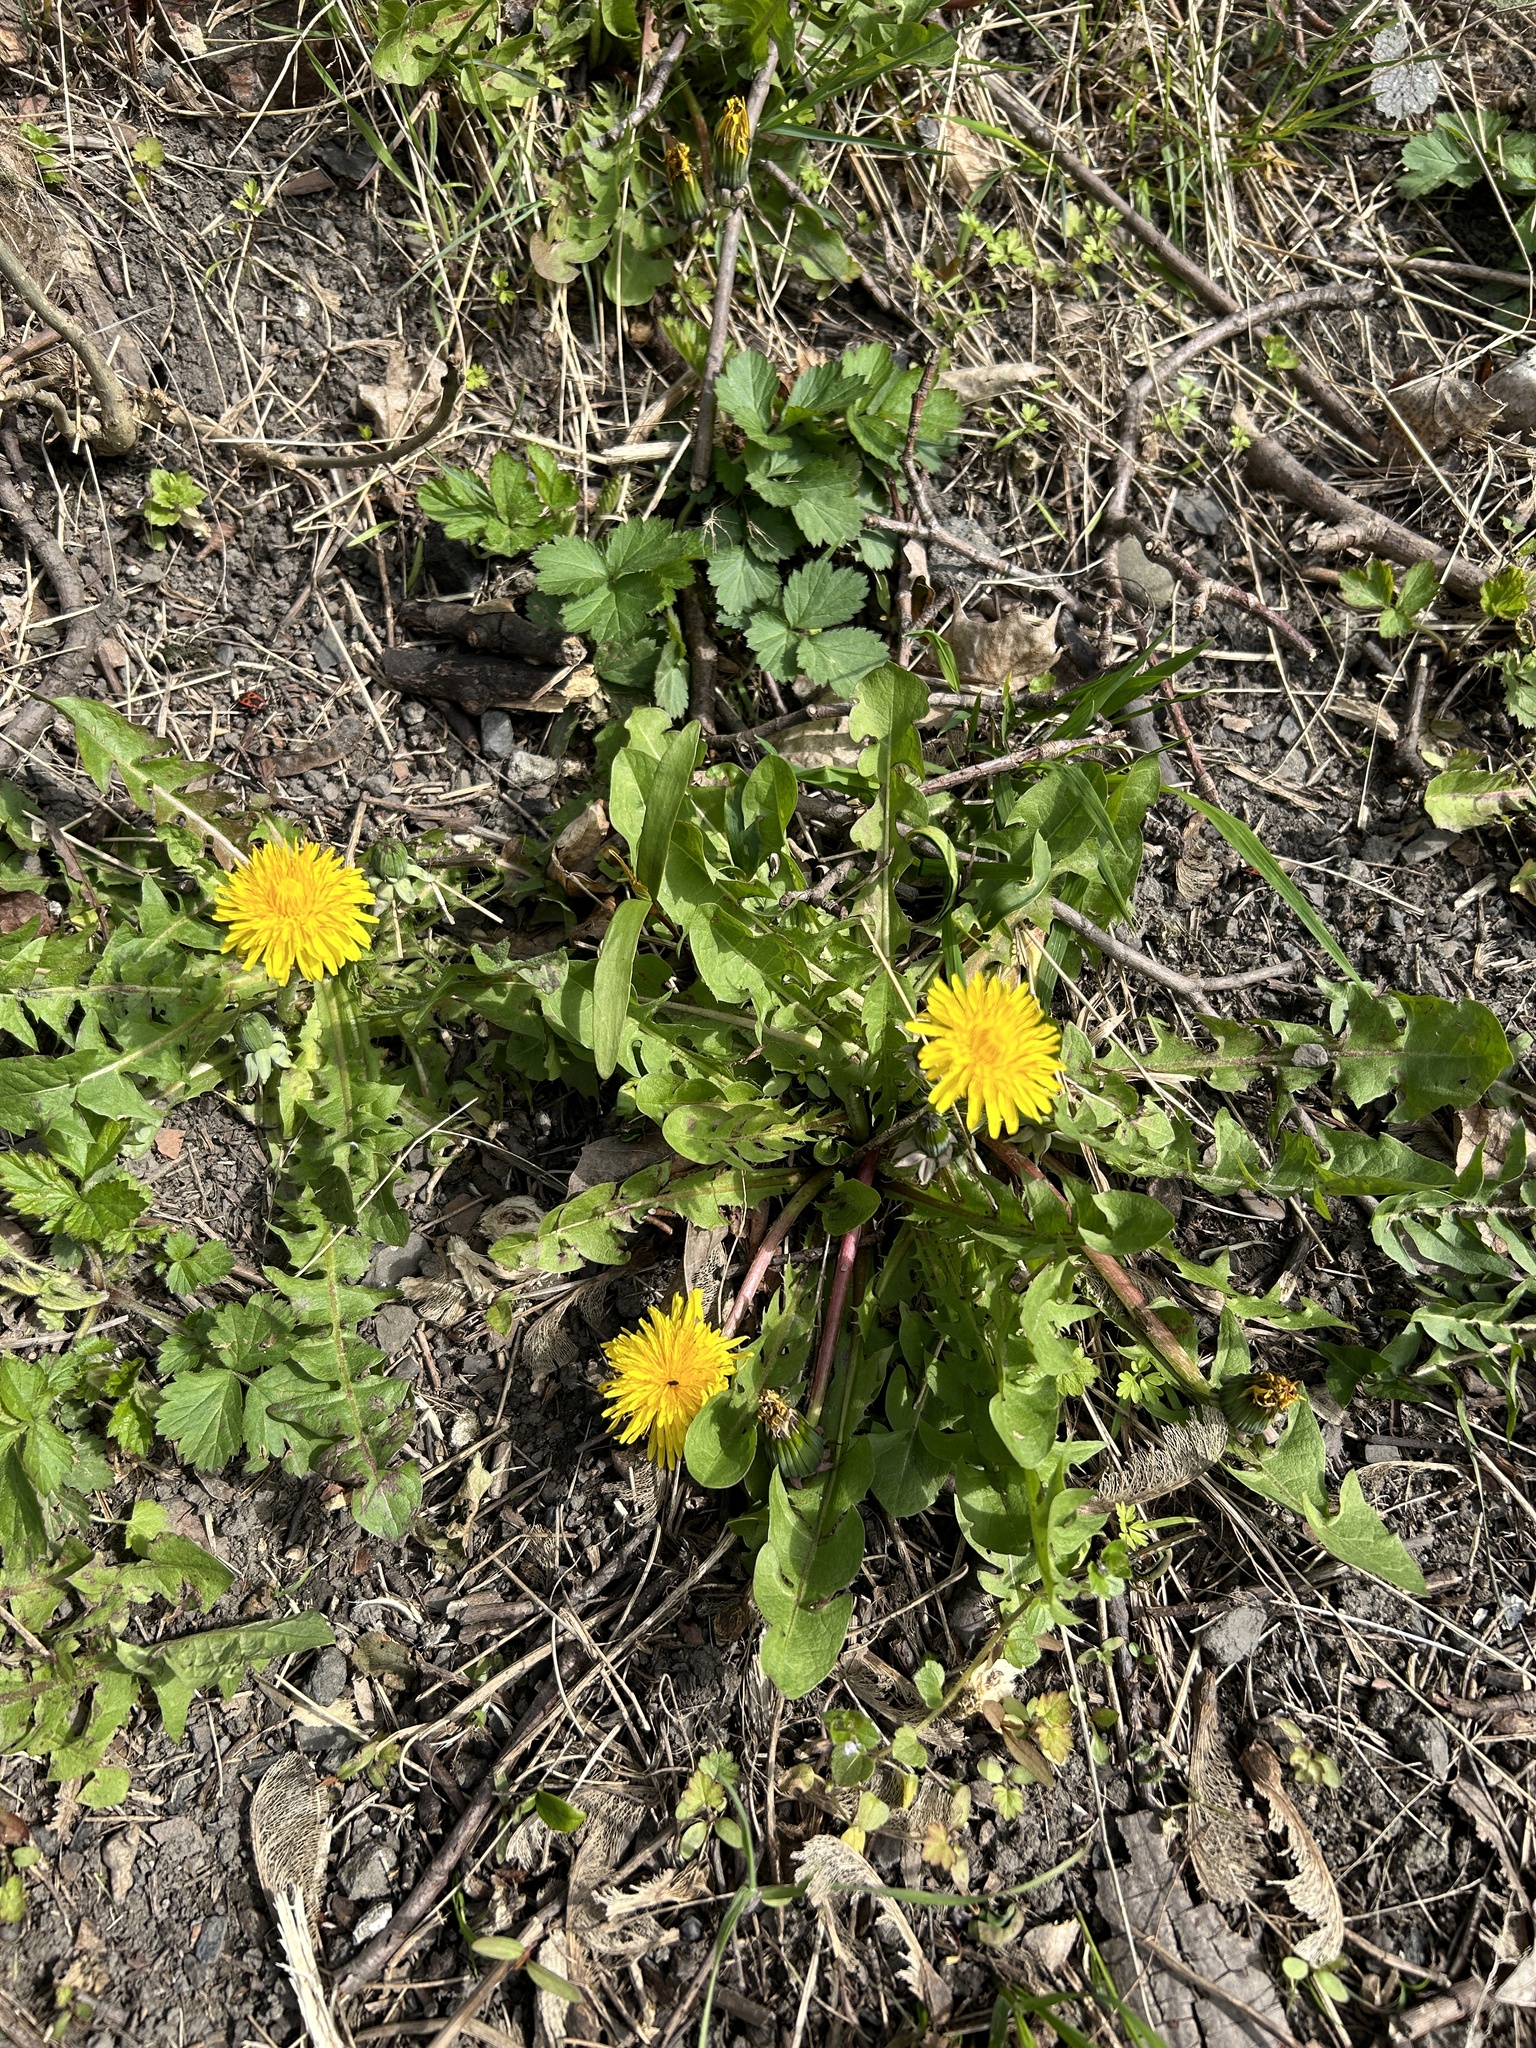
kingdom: Plantae
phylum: Tracheophyta
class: Magnoliopsida
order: Asterales
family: Asteraceae
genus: Taraxacum
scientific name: Taraxacum officinale
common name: Common dandelion
